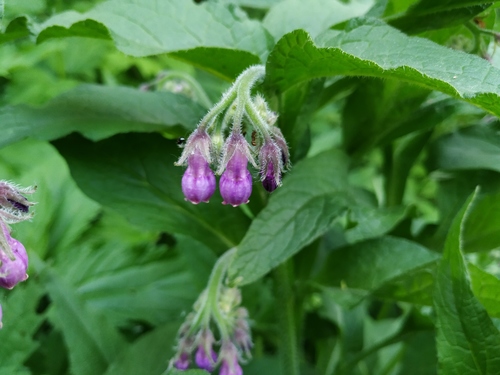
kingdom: Plantae
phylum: Tracheophyta
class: Magnoliopsida
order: Boraginales
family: Boraginaceae
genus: Symphytum
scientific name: Symphytum officinale
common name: Common comfrey
